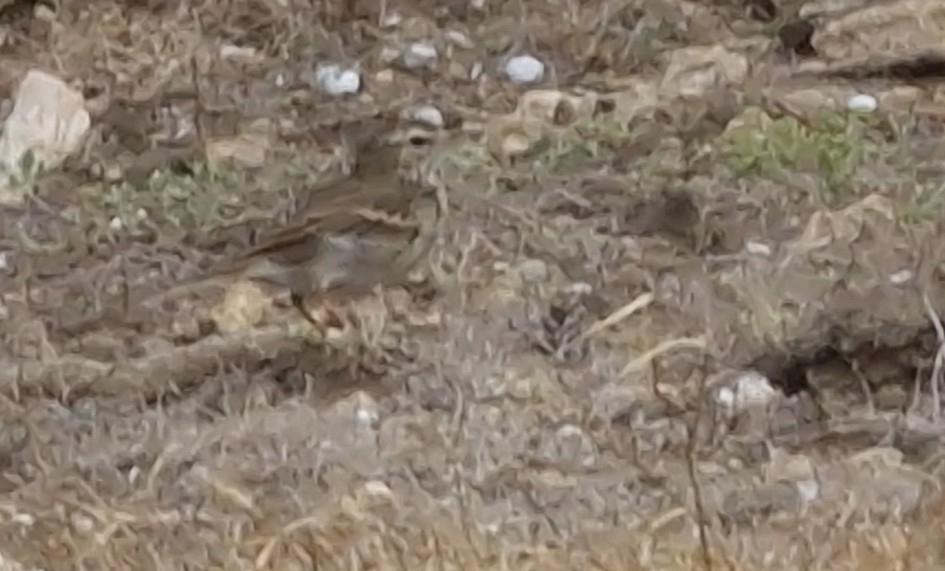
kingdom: Animalia
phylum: Chordata
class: Aves
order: Passeriformes
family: Motacillidae
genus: Anthus
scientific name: Anthus berthelotii
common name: Berthelot's pipit
